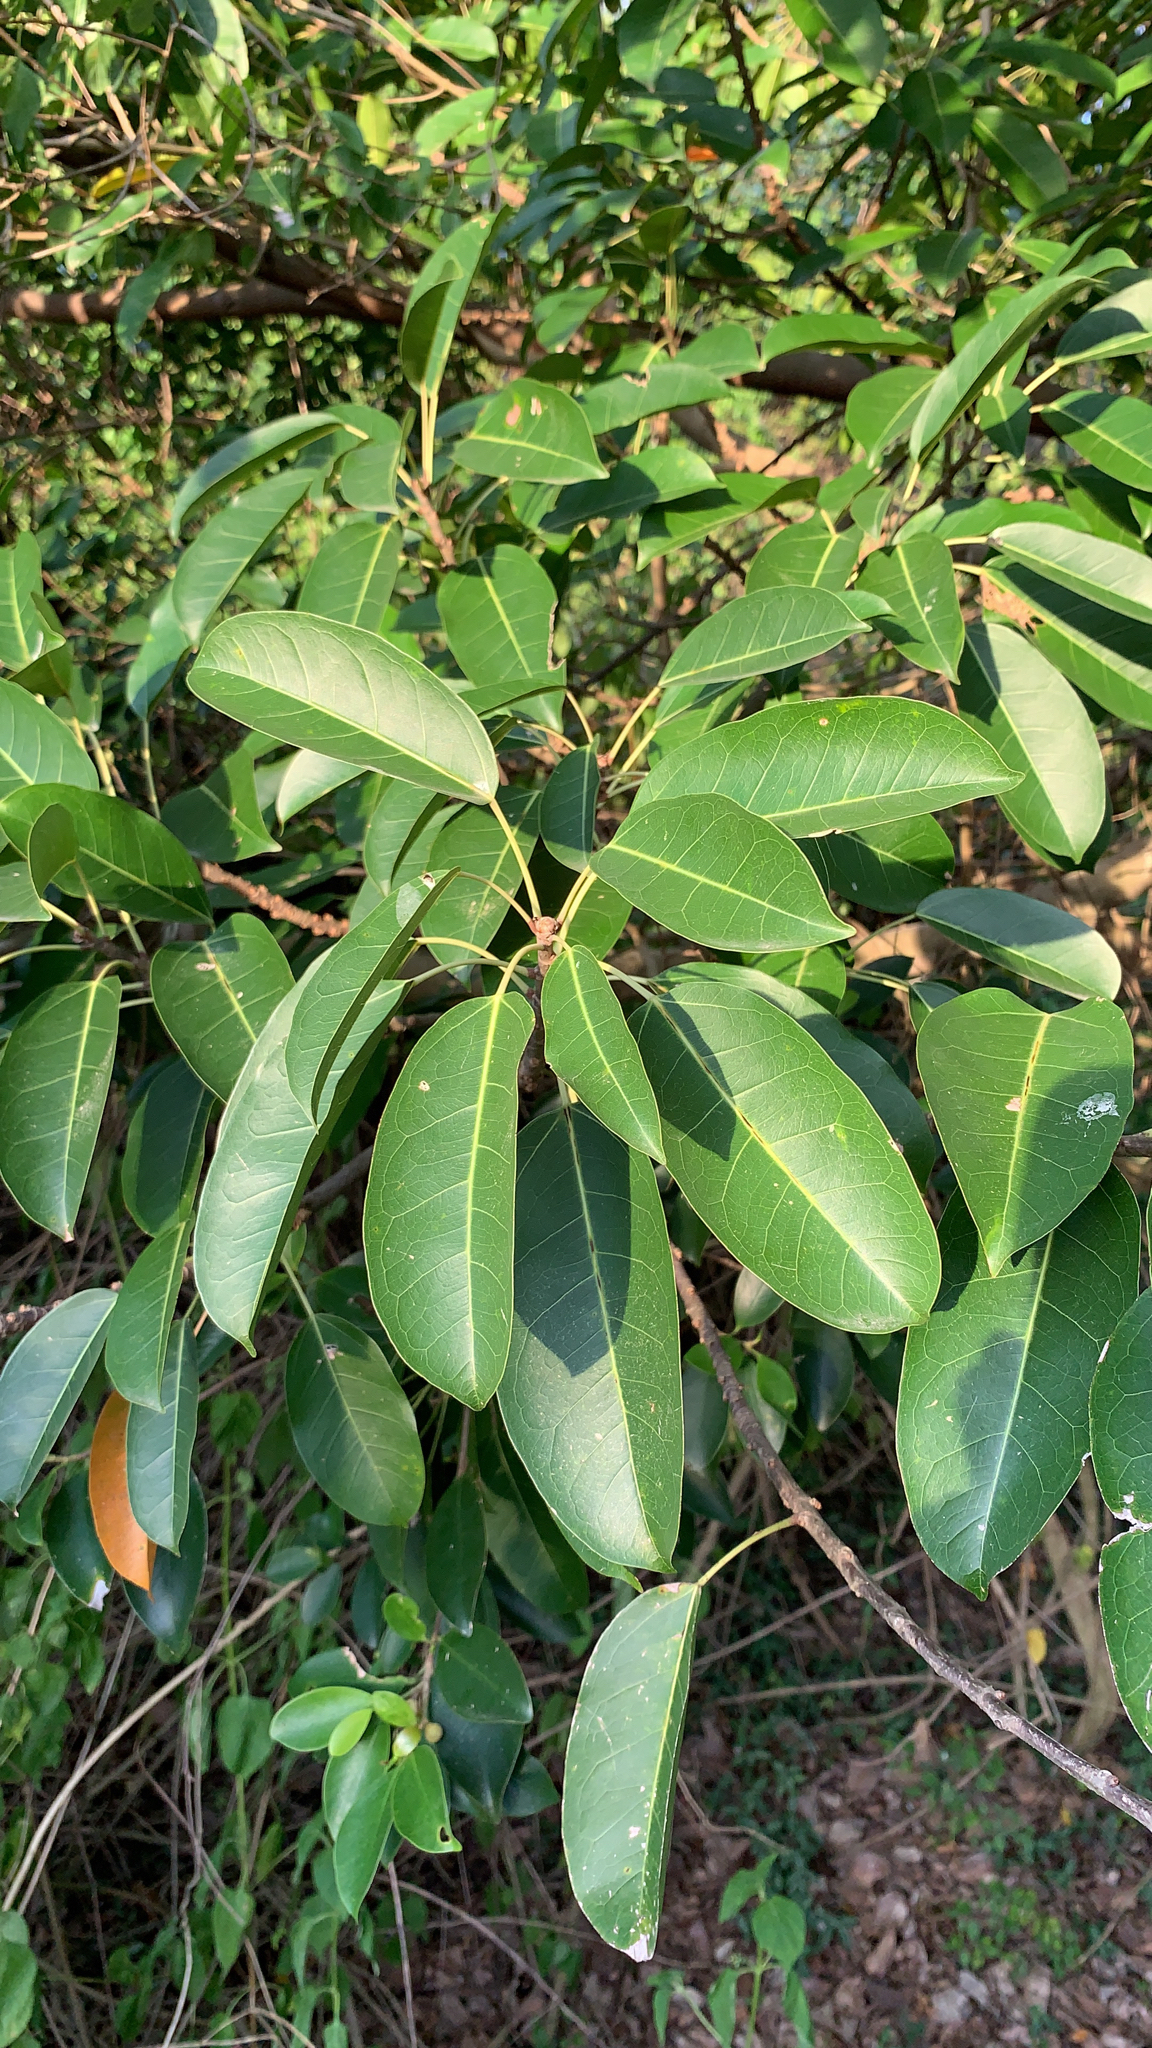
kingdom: Plantae
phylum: Tracheophyta
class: Magnoliopsida
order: Rosales
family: Moraceae
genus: Ficus
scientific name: Ficus subpisocarpa
